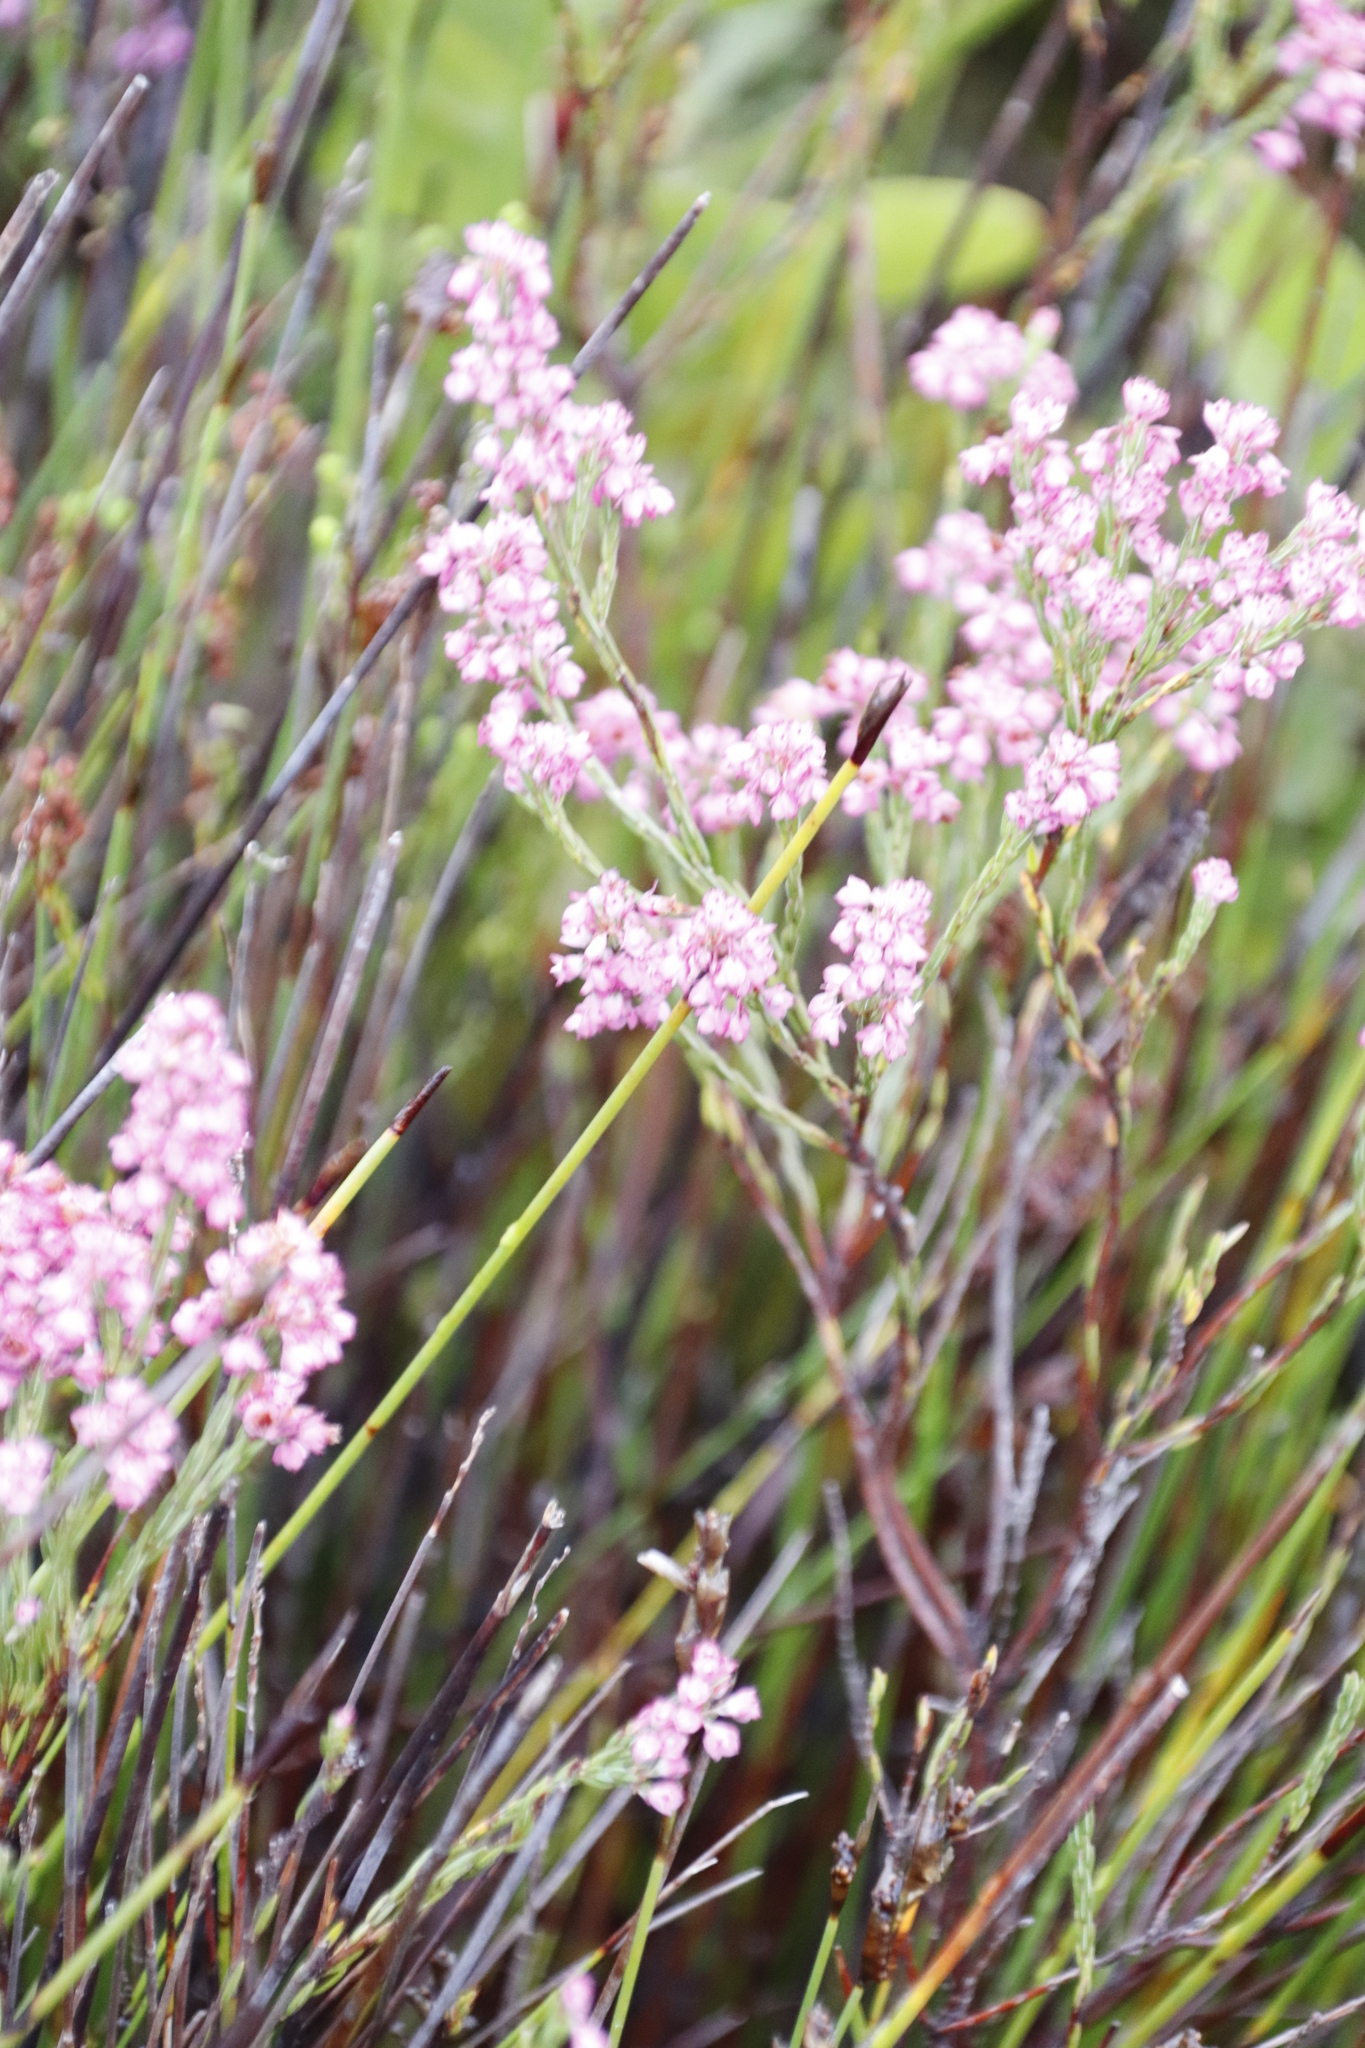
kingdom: Plantae
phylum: Tracheophyta
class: Magnoliopsida
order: Ericales
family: Ericaceae
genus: Erica
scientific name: Erica corifolia
